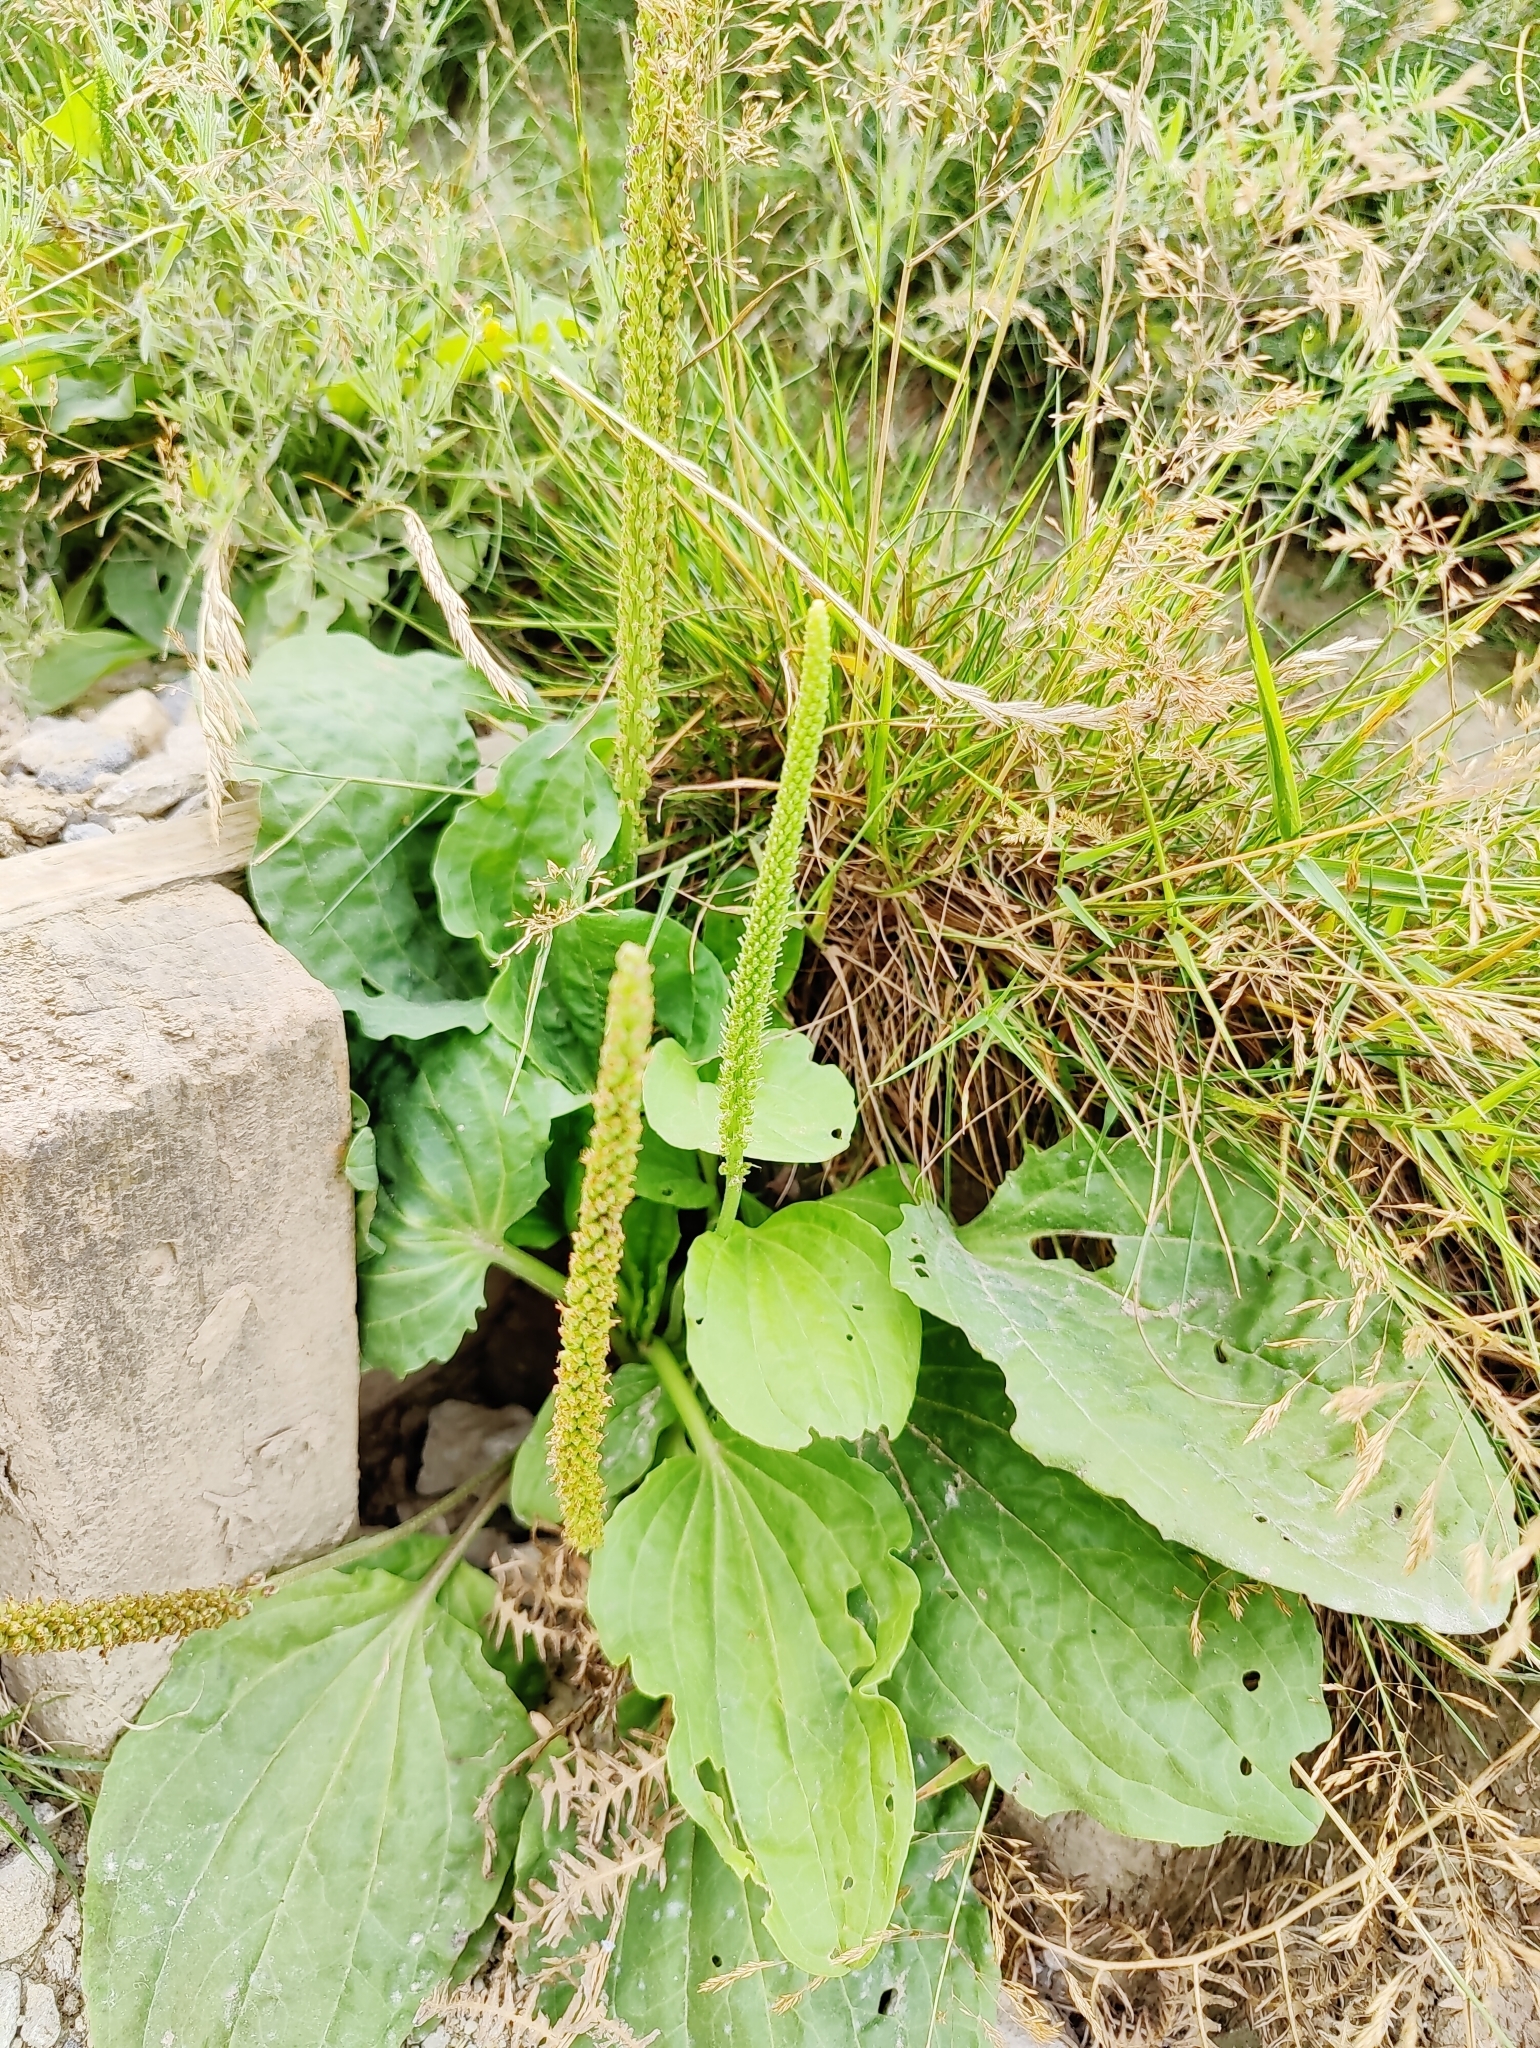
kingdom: Plantae
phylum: Tracheophyta
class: Magnoliopsida
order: Lamiales
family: Plantaginaceae
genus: Plantago
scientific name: Plantago major
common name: Common plantain
